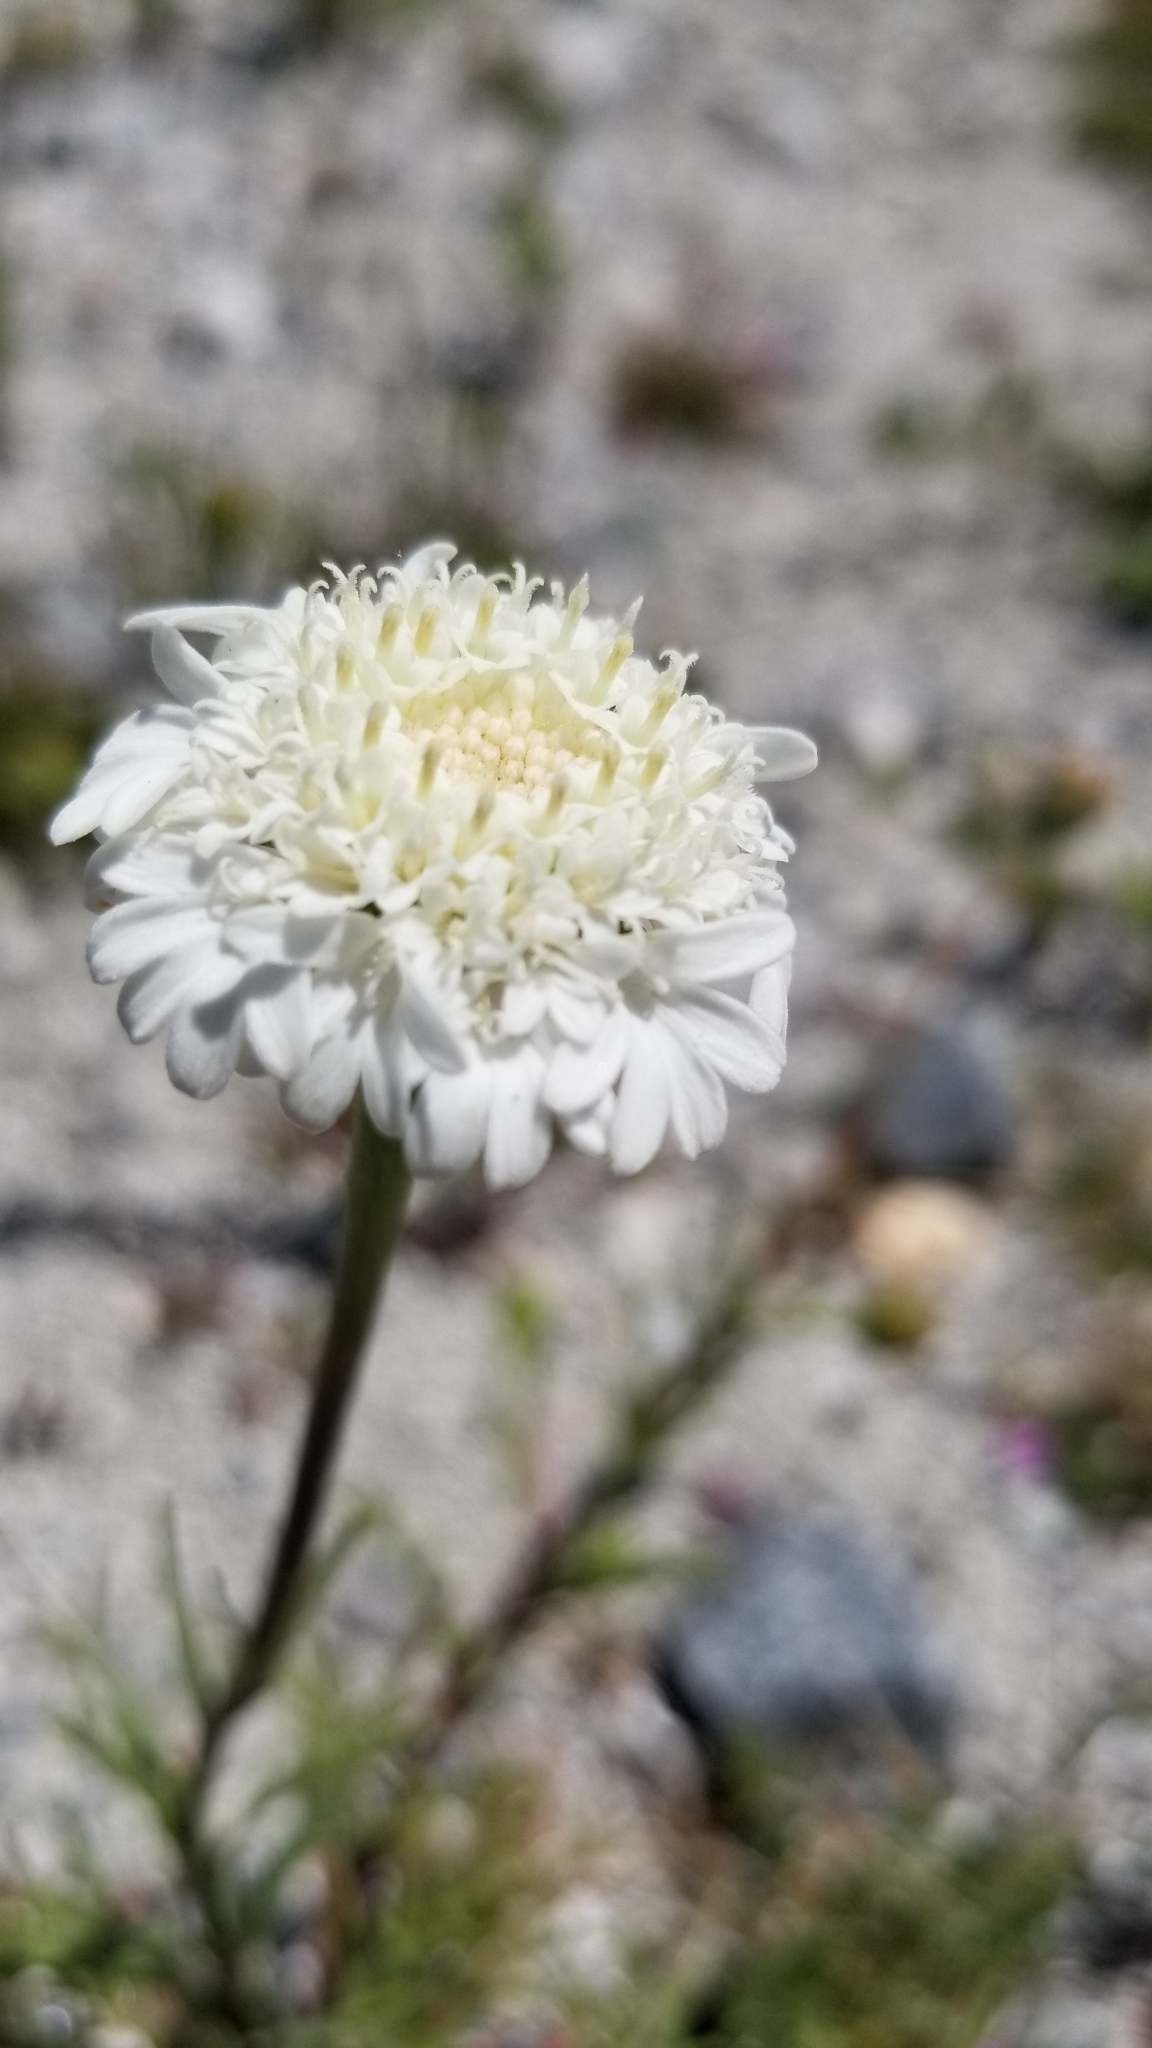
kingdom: Plantae
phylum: Tracheophyta
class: Magnoliopsida
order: Asterales
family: Asteraceae
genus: Chaenactis
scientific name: Chaenactis fremontii
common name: Fremont pincushion
